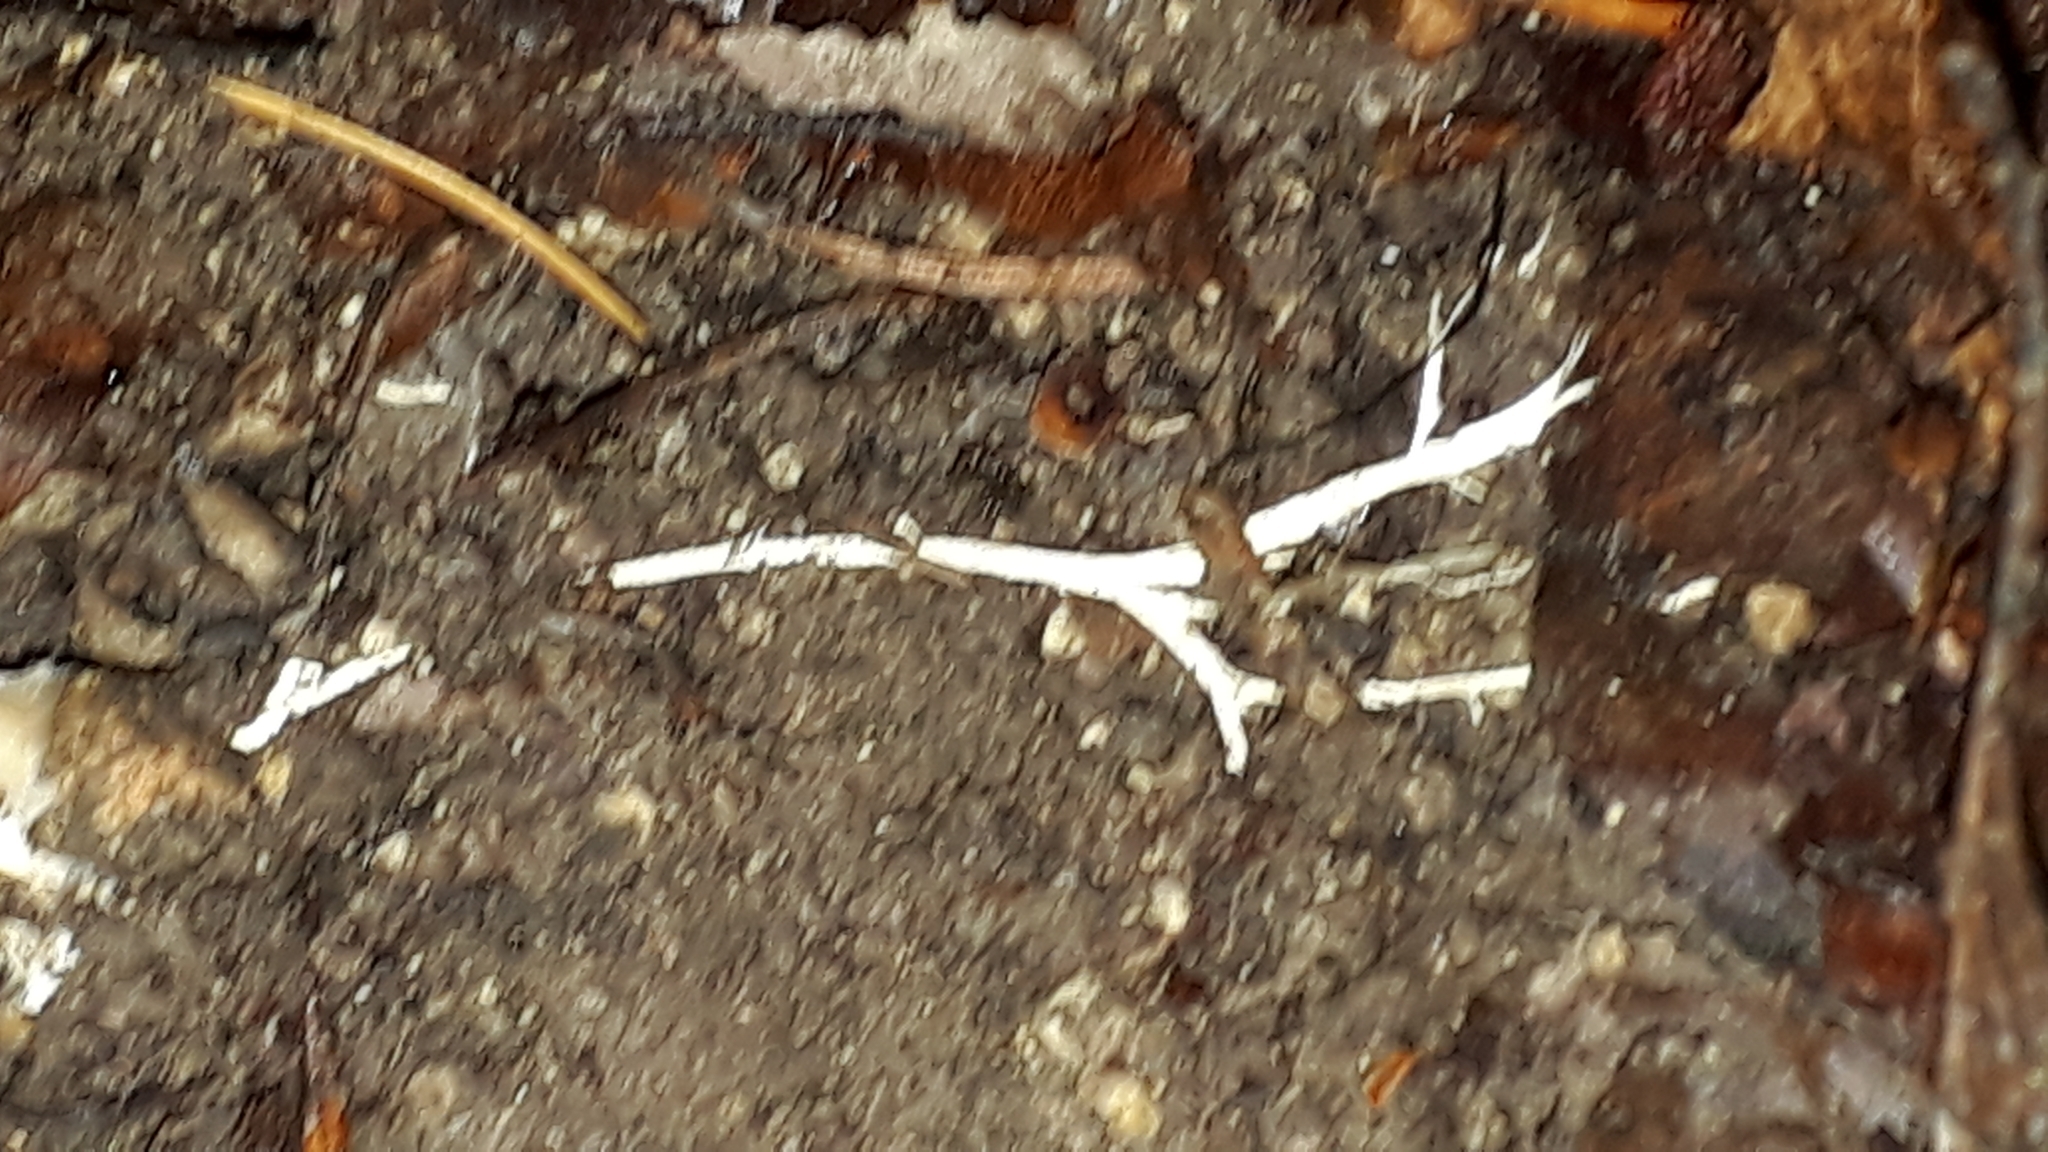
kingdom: Fungi
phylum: Basidiomycota
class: Agaricomycetes
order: Agaricales
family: Tricholomataceae
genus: Megacollybia
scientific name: Megacollybia platyphylla
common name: Whitelaced shank
